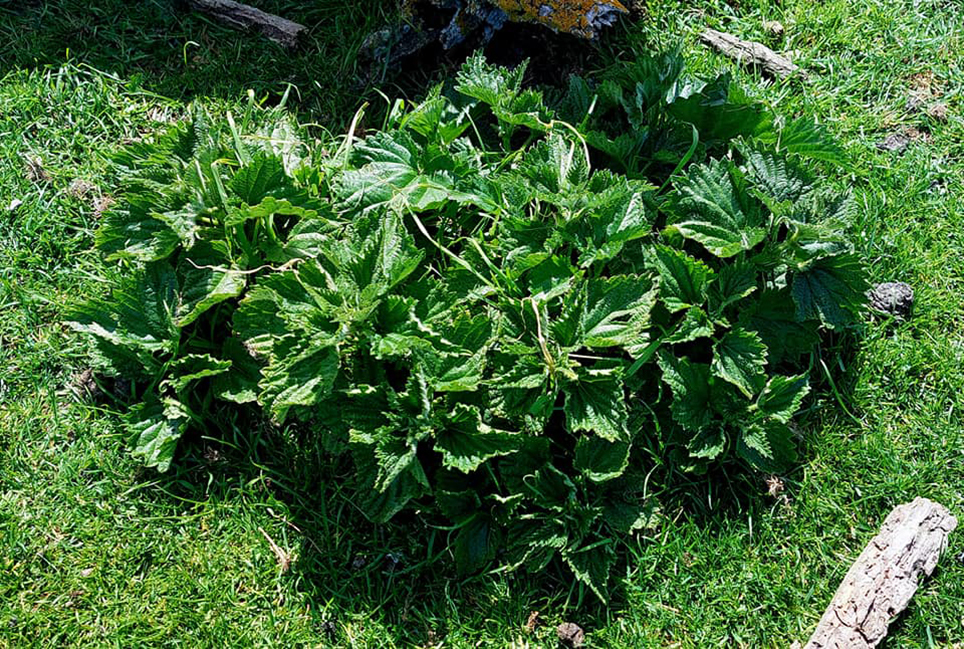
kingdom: Plantae
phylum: Tracheophyta
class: Magnoliopsida
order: Rosales
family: Urticaceae
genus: Urtica
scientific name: Urtica australis
